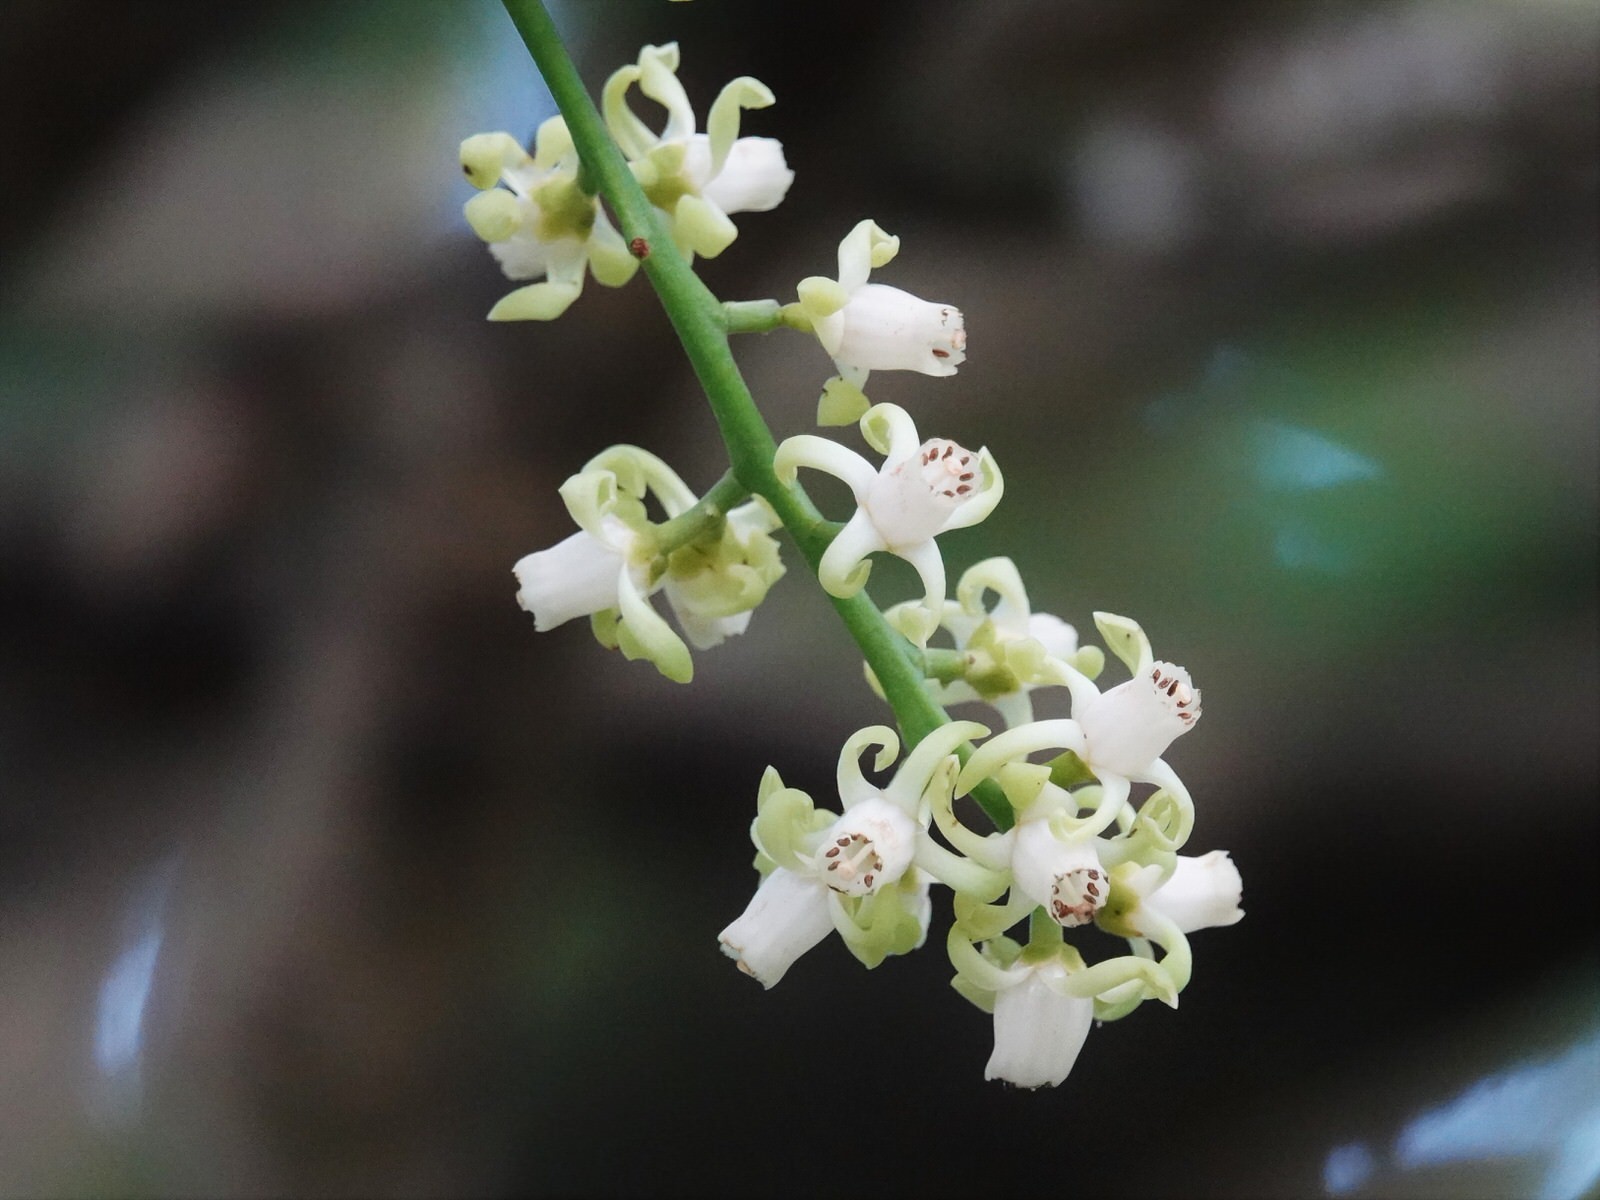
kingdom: Plantae
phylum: Tracheophyta
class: Magnoliopsida
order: Sapindales
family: Meliaceae
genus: Didymocheton
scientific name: Didymocheton spectabilis
